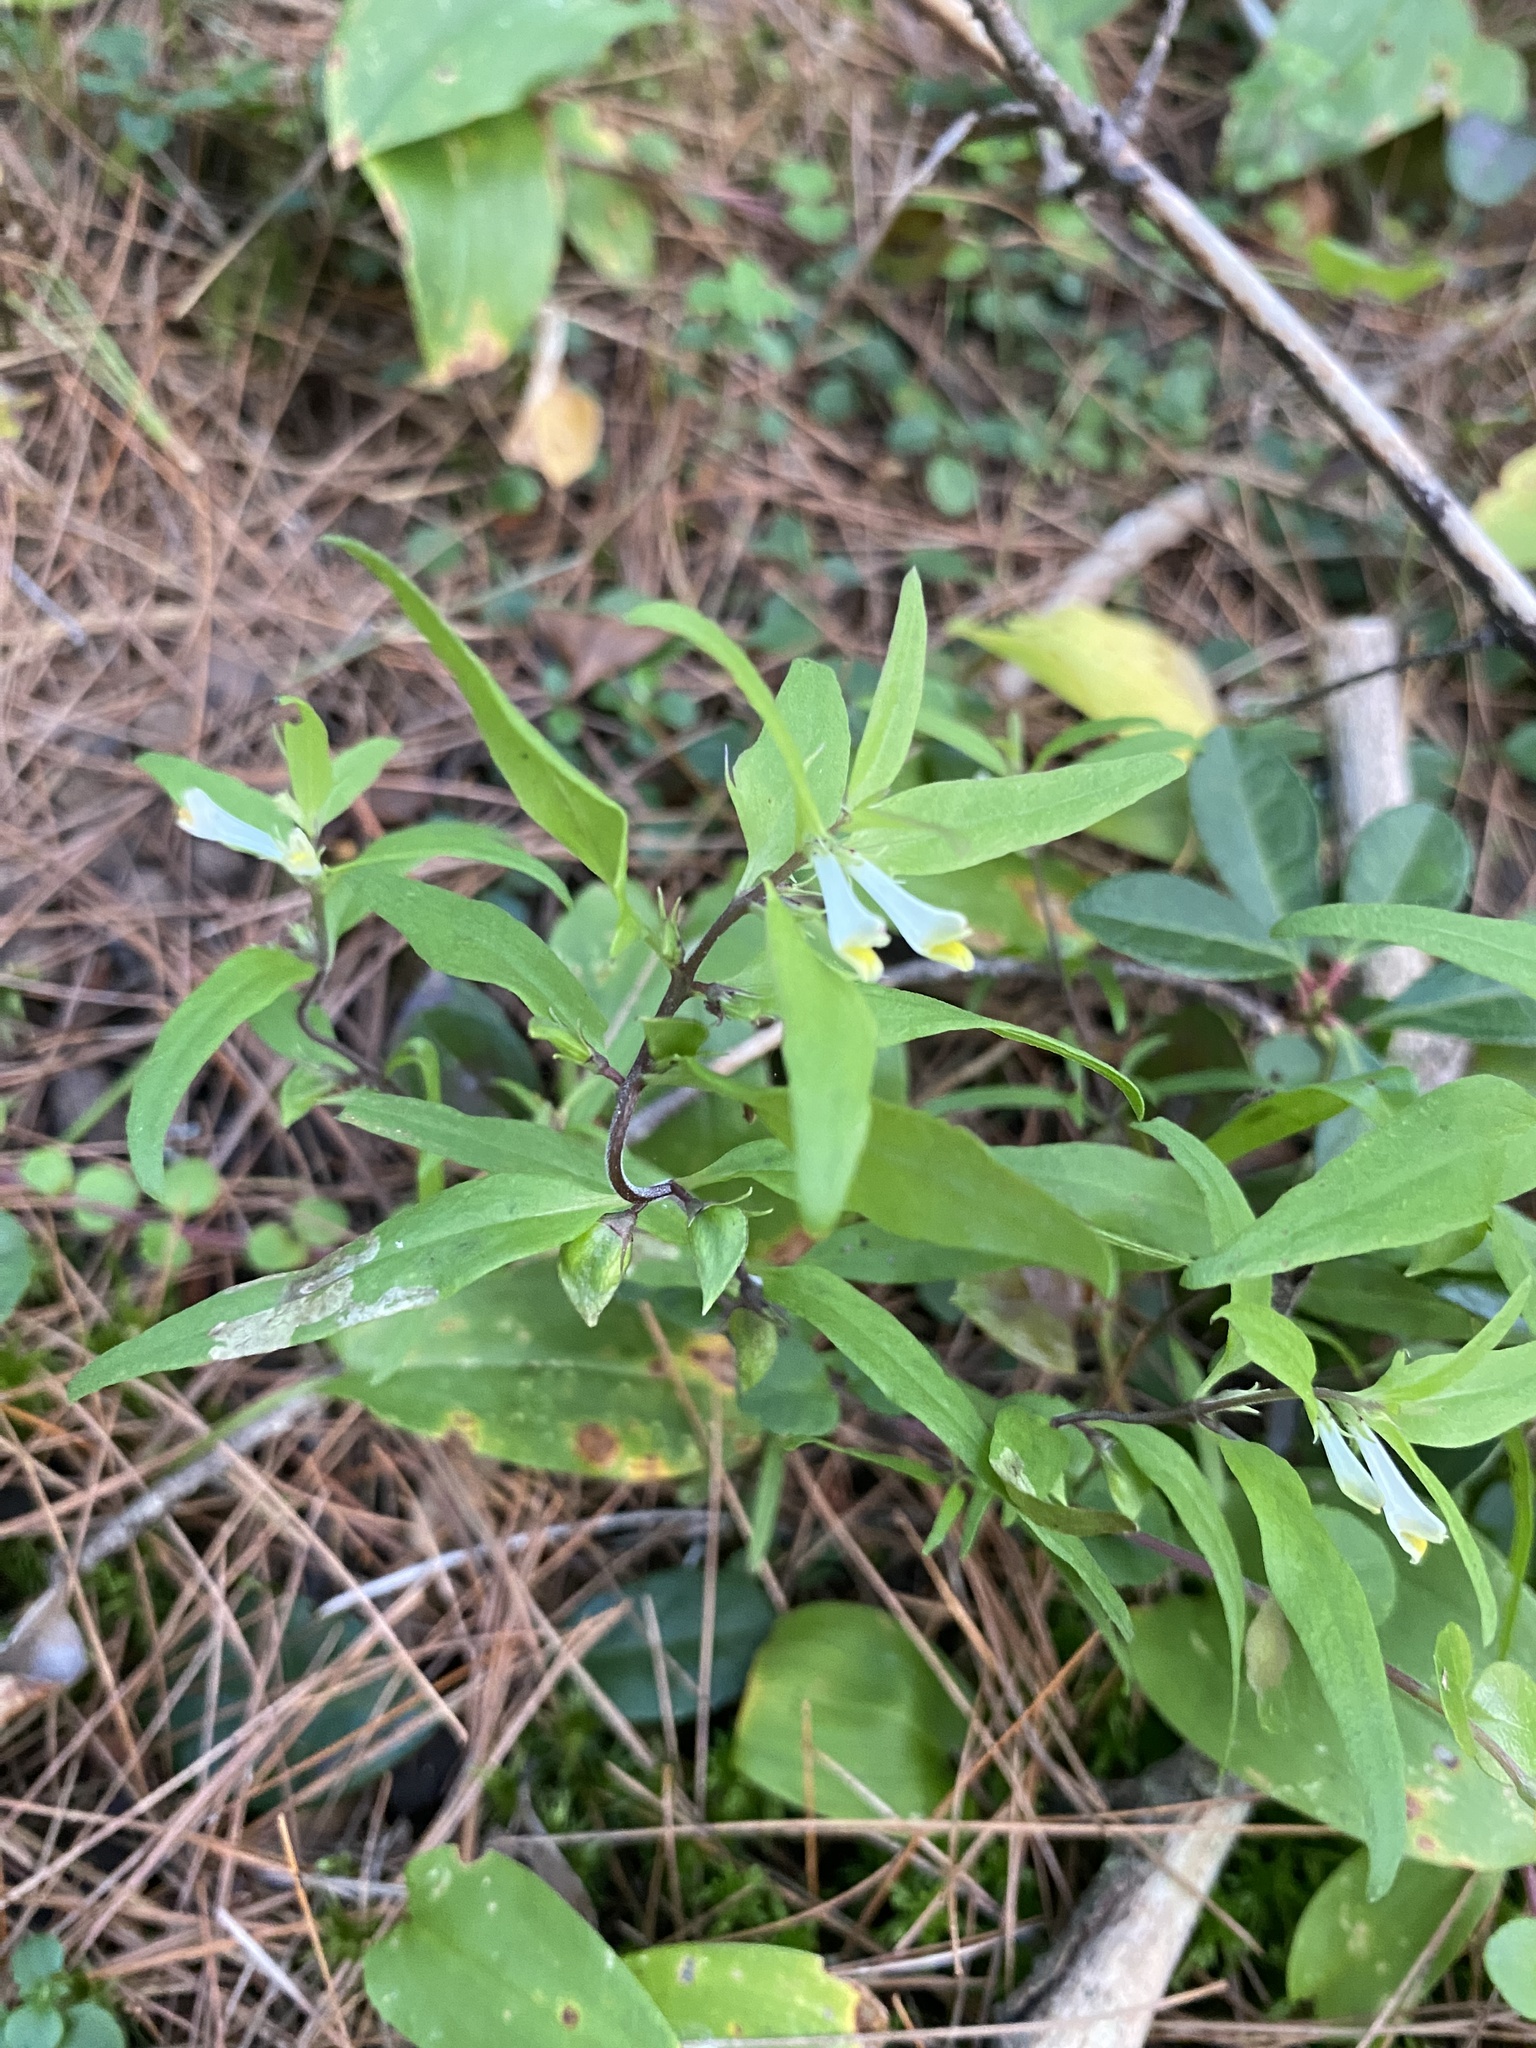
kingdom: Plantae
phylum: Tracheophyta
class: Magnoliopsida
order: Lamiales
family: Orobanchaceae
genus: Melampyrum
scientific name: Melampyrum lineare
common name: American cow-wheat
